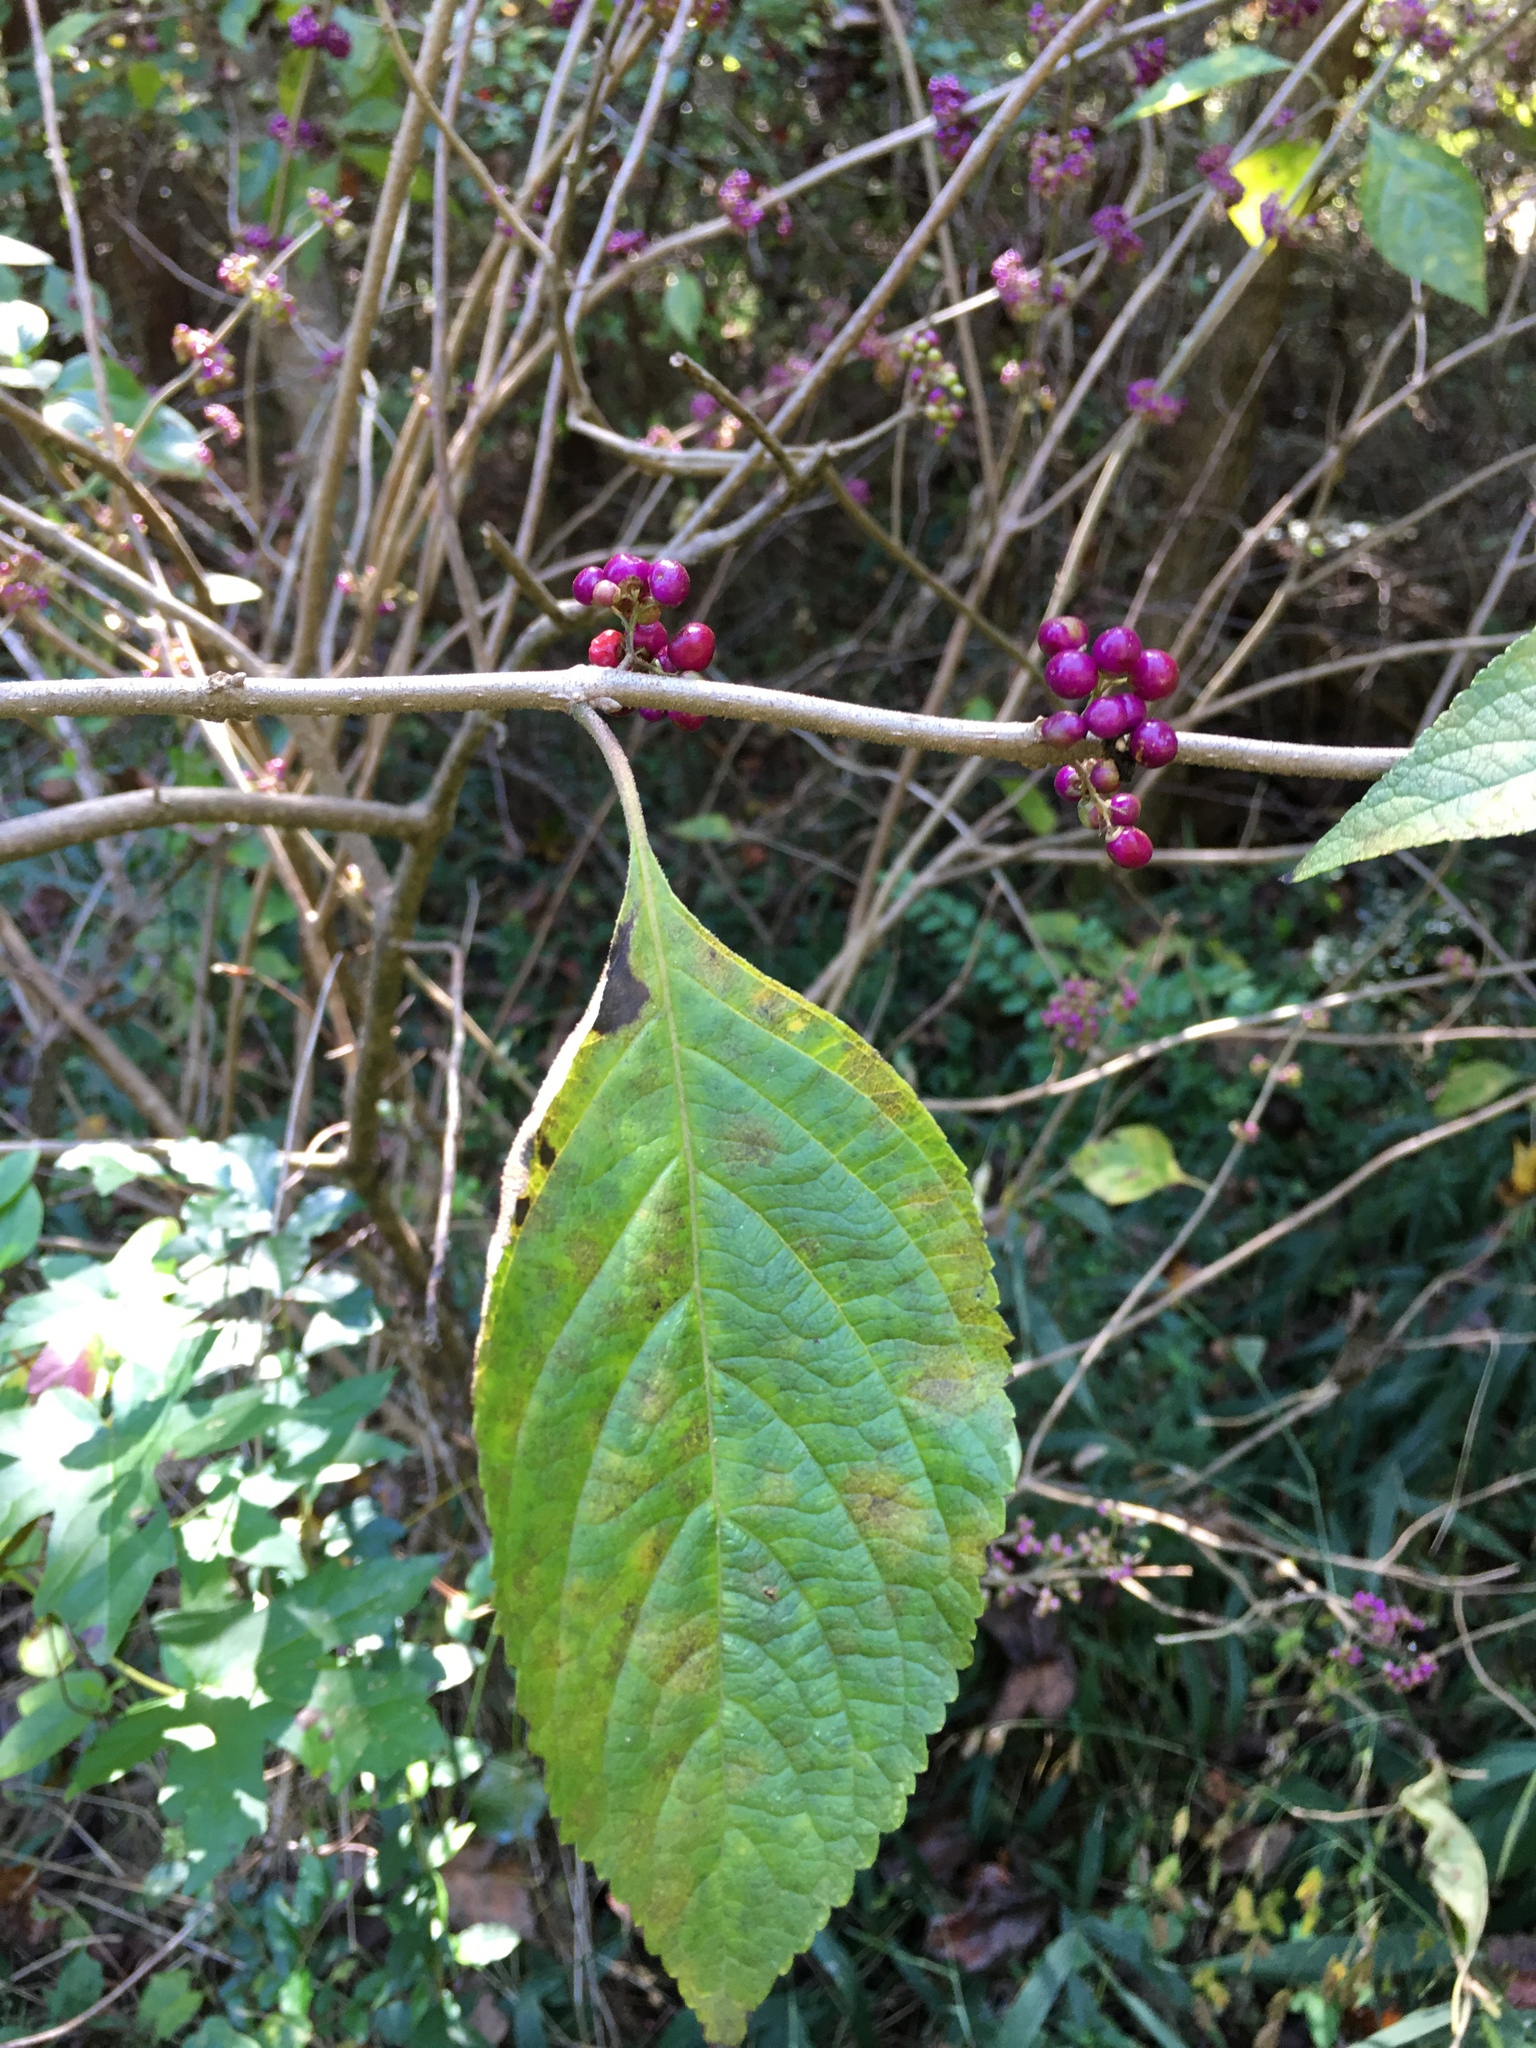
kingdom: Plantae
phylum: Tracheophyta
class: Magnoliopsida
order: Lamiales
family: Lamiaceae
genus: Callicarpa
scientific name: Callicarpa americana
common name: American beautyberry
